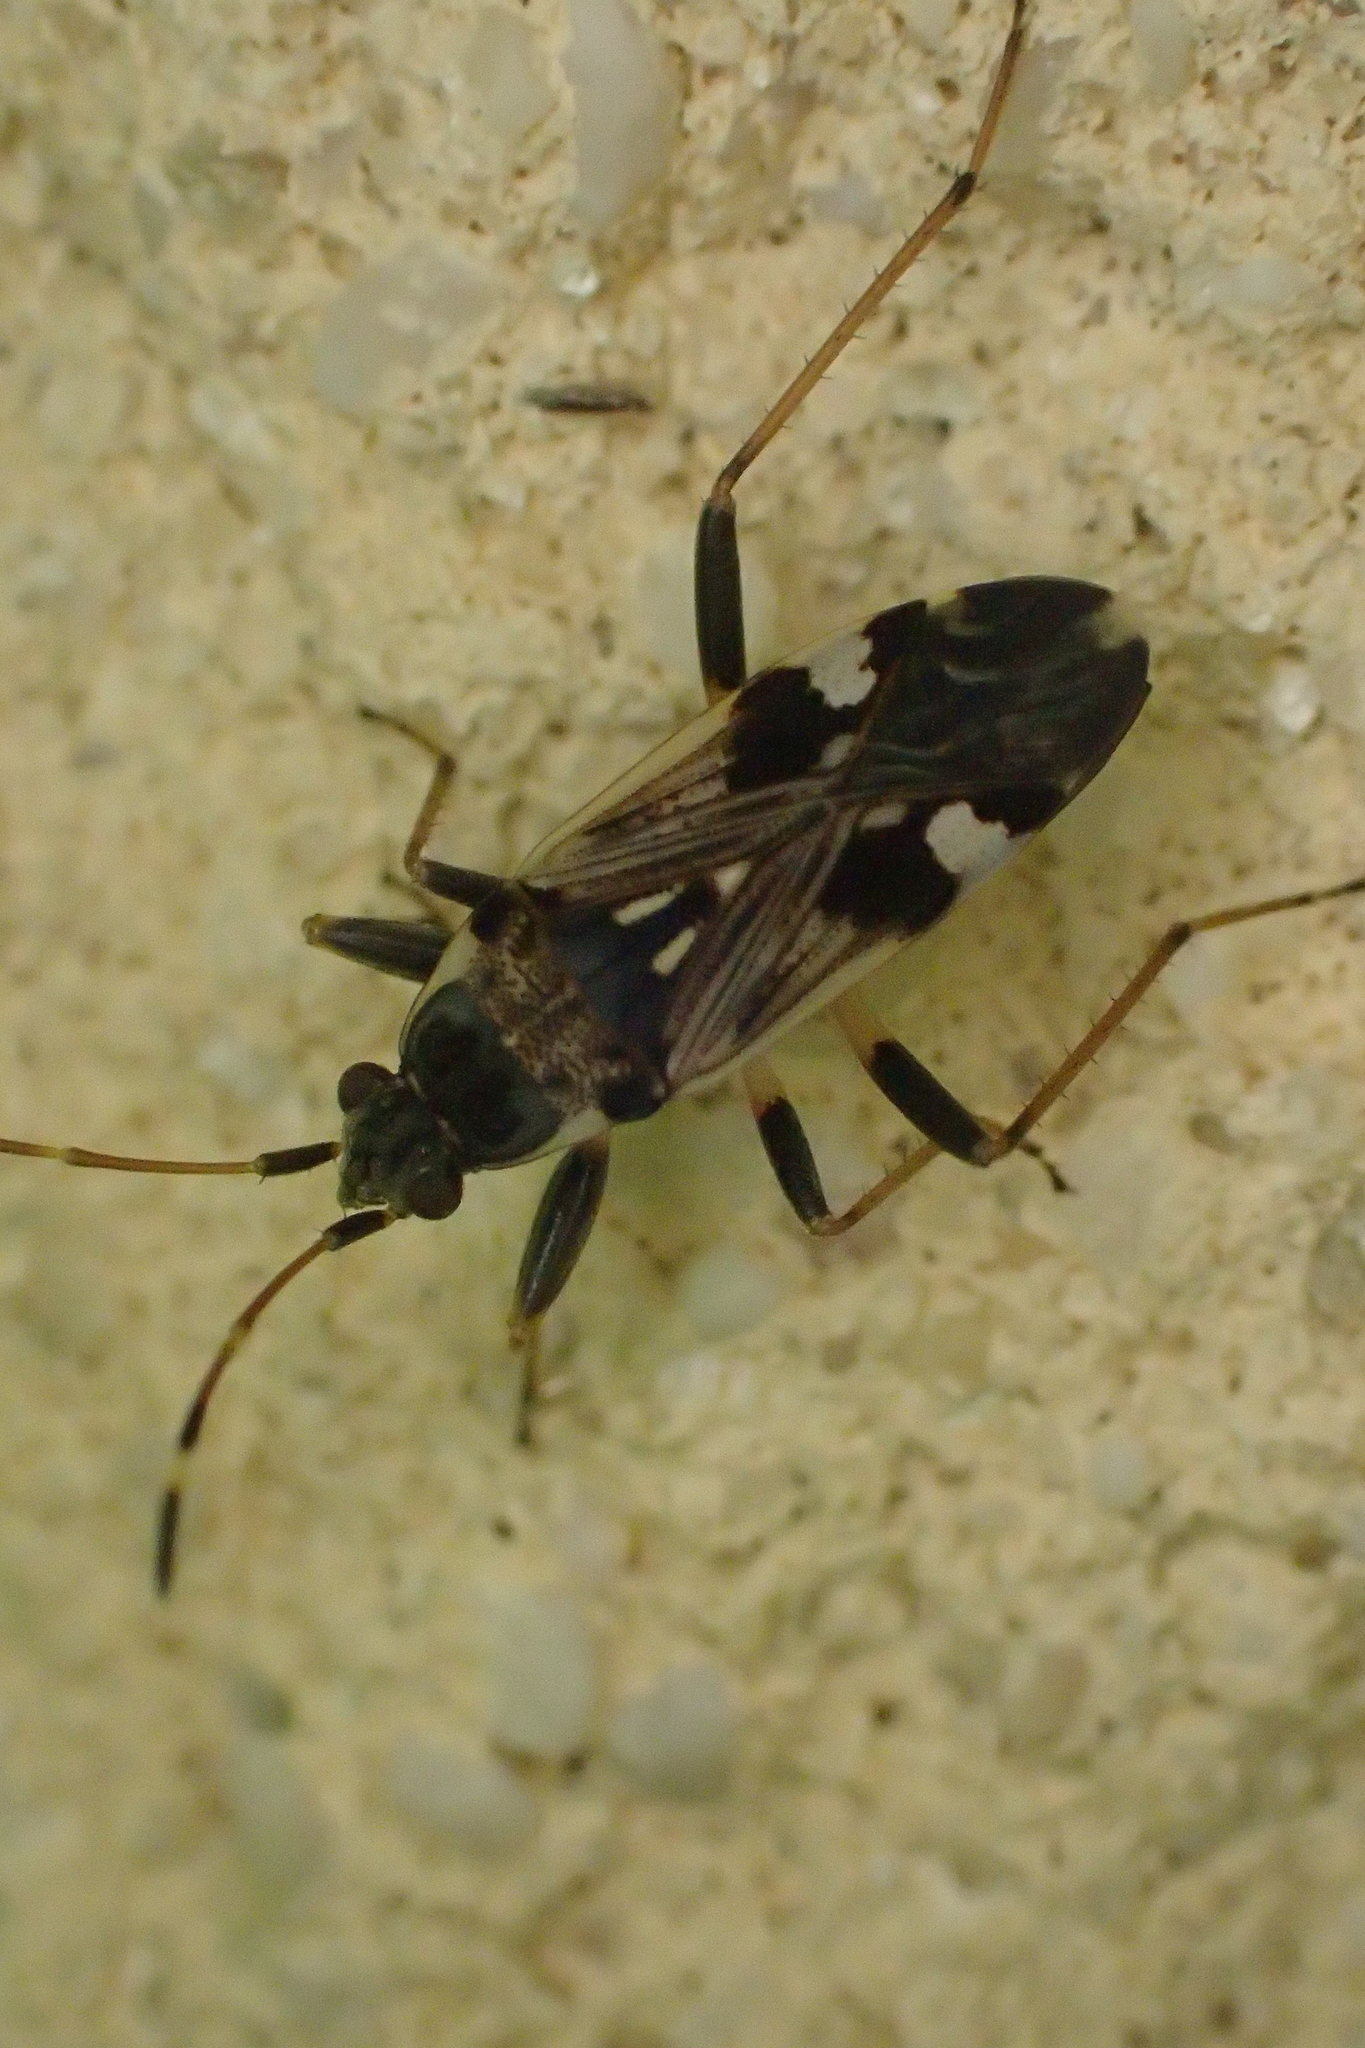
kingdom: Animalia
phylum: Arthropoda
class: Insecta
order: Hemiptera
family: Rhyparochromidae
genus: Beosus
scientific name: Beosus maritimus
